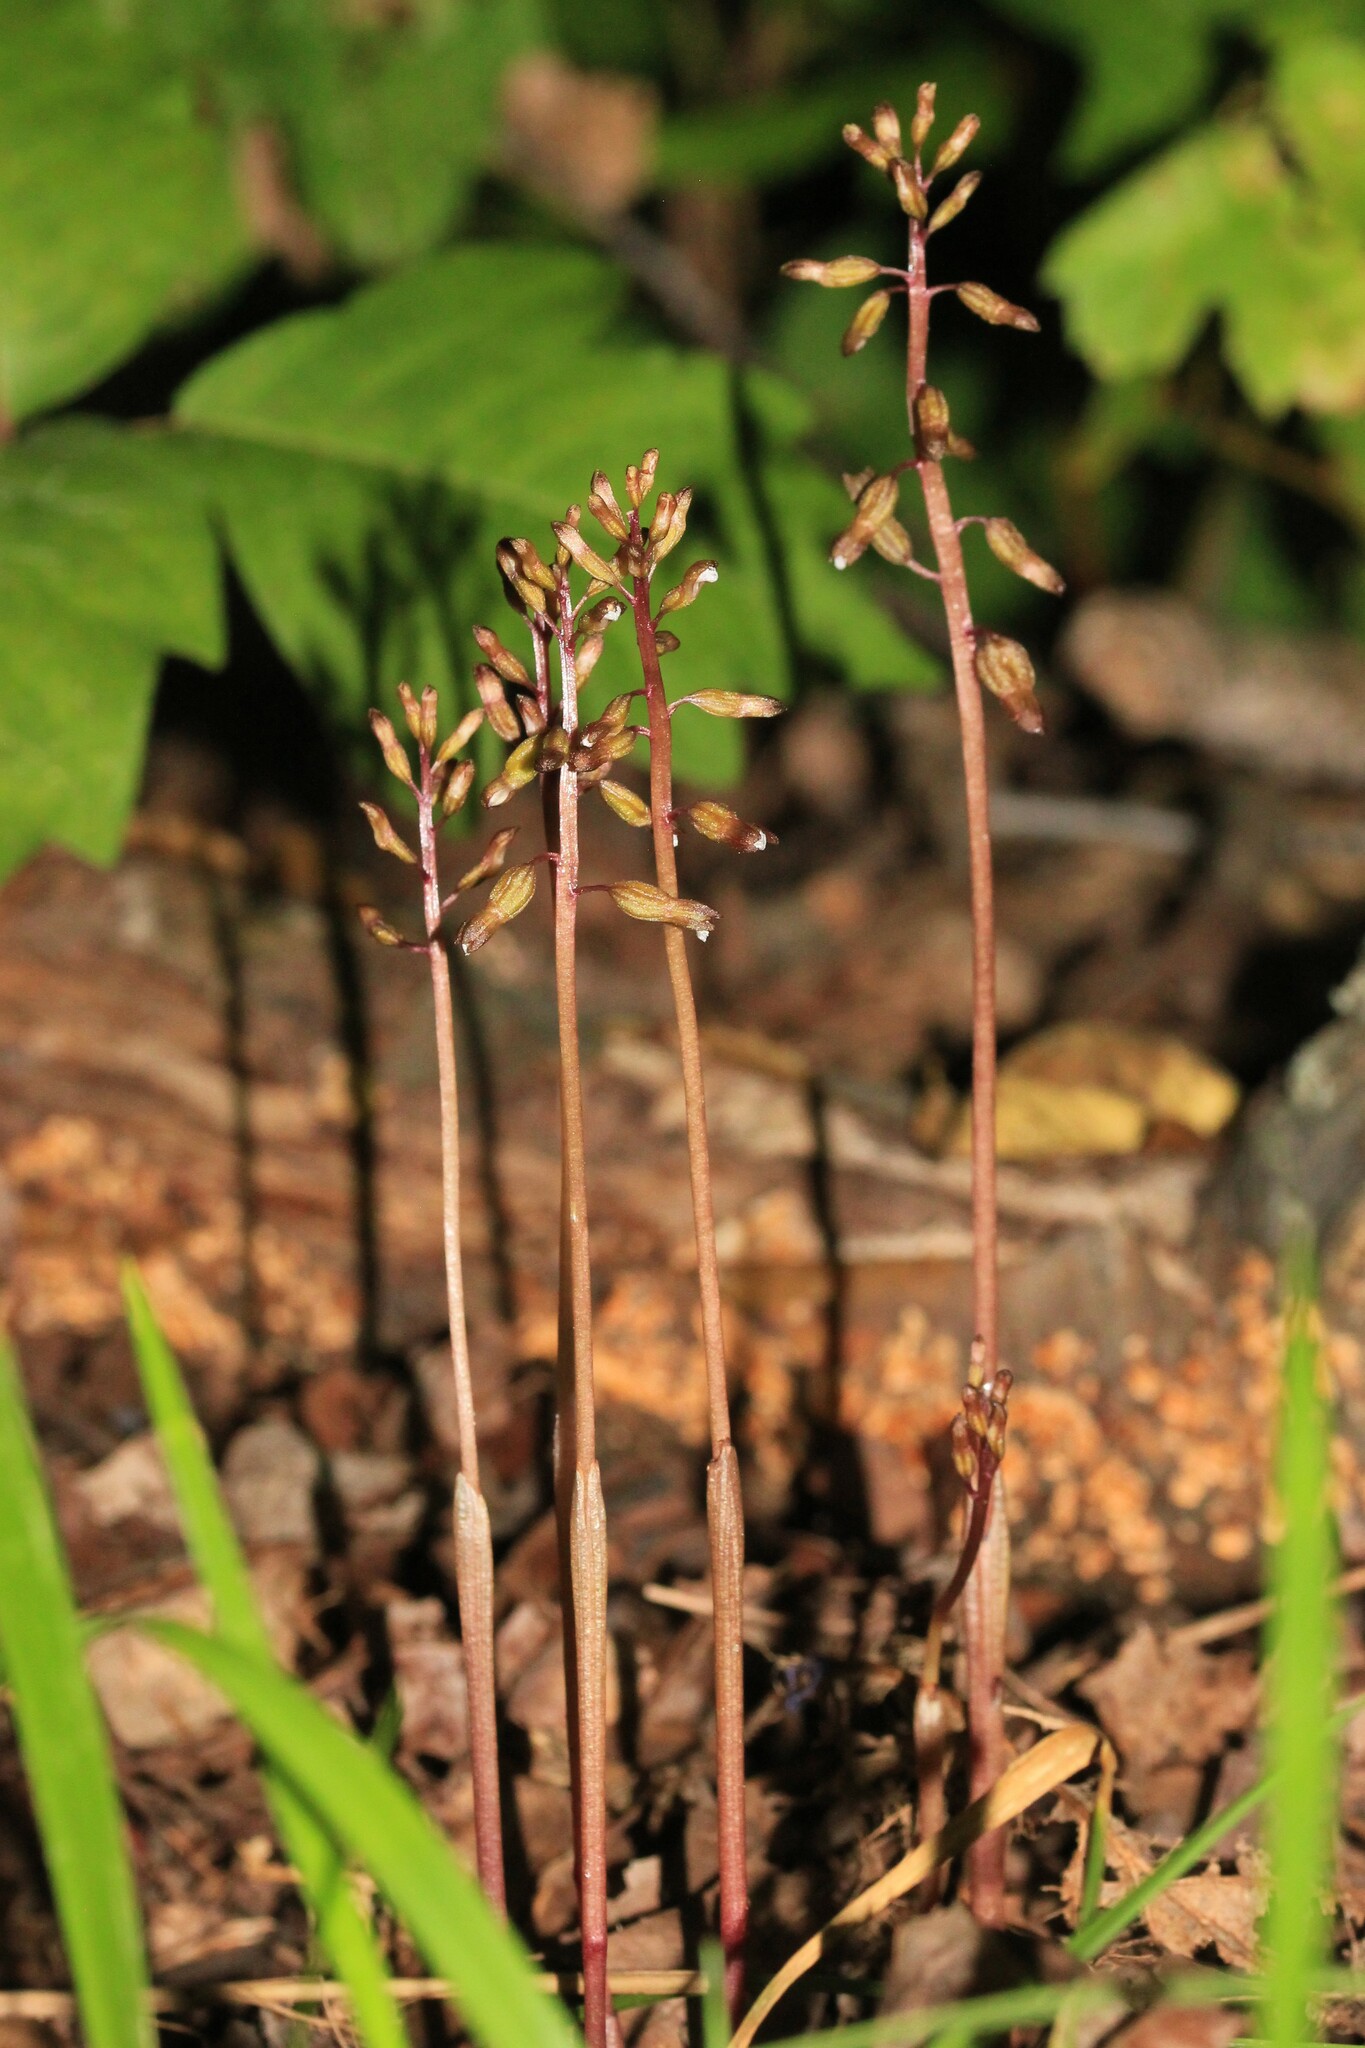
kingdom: Plantae
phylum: Tracheophyta
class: Liliopsida
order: Asparagales
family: Orchidaceae
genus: Corallorhiza
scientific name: Corallorhiza odontorhiza
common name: Autumn coralroot
